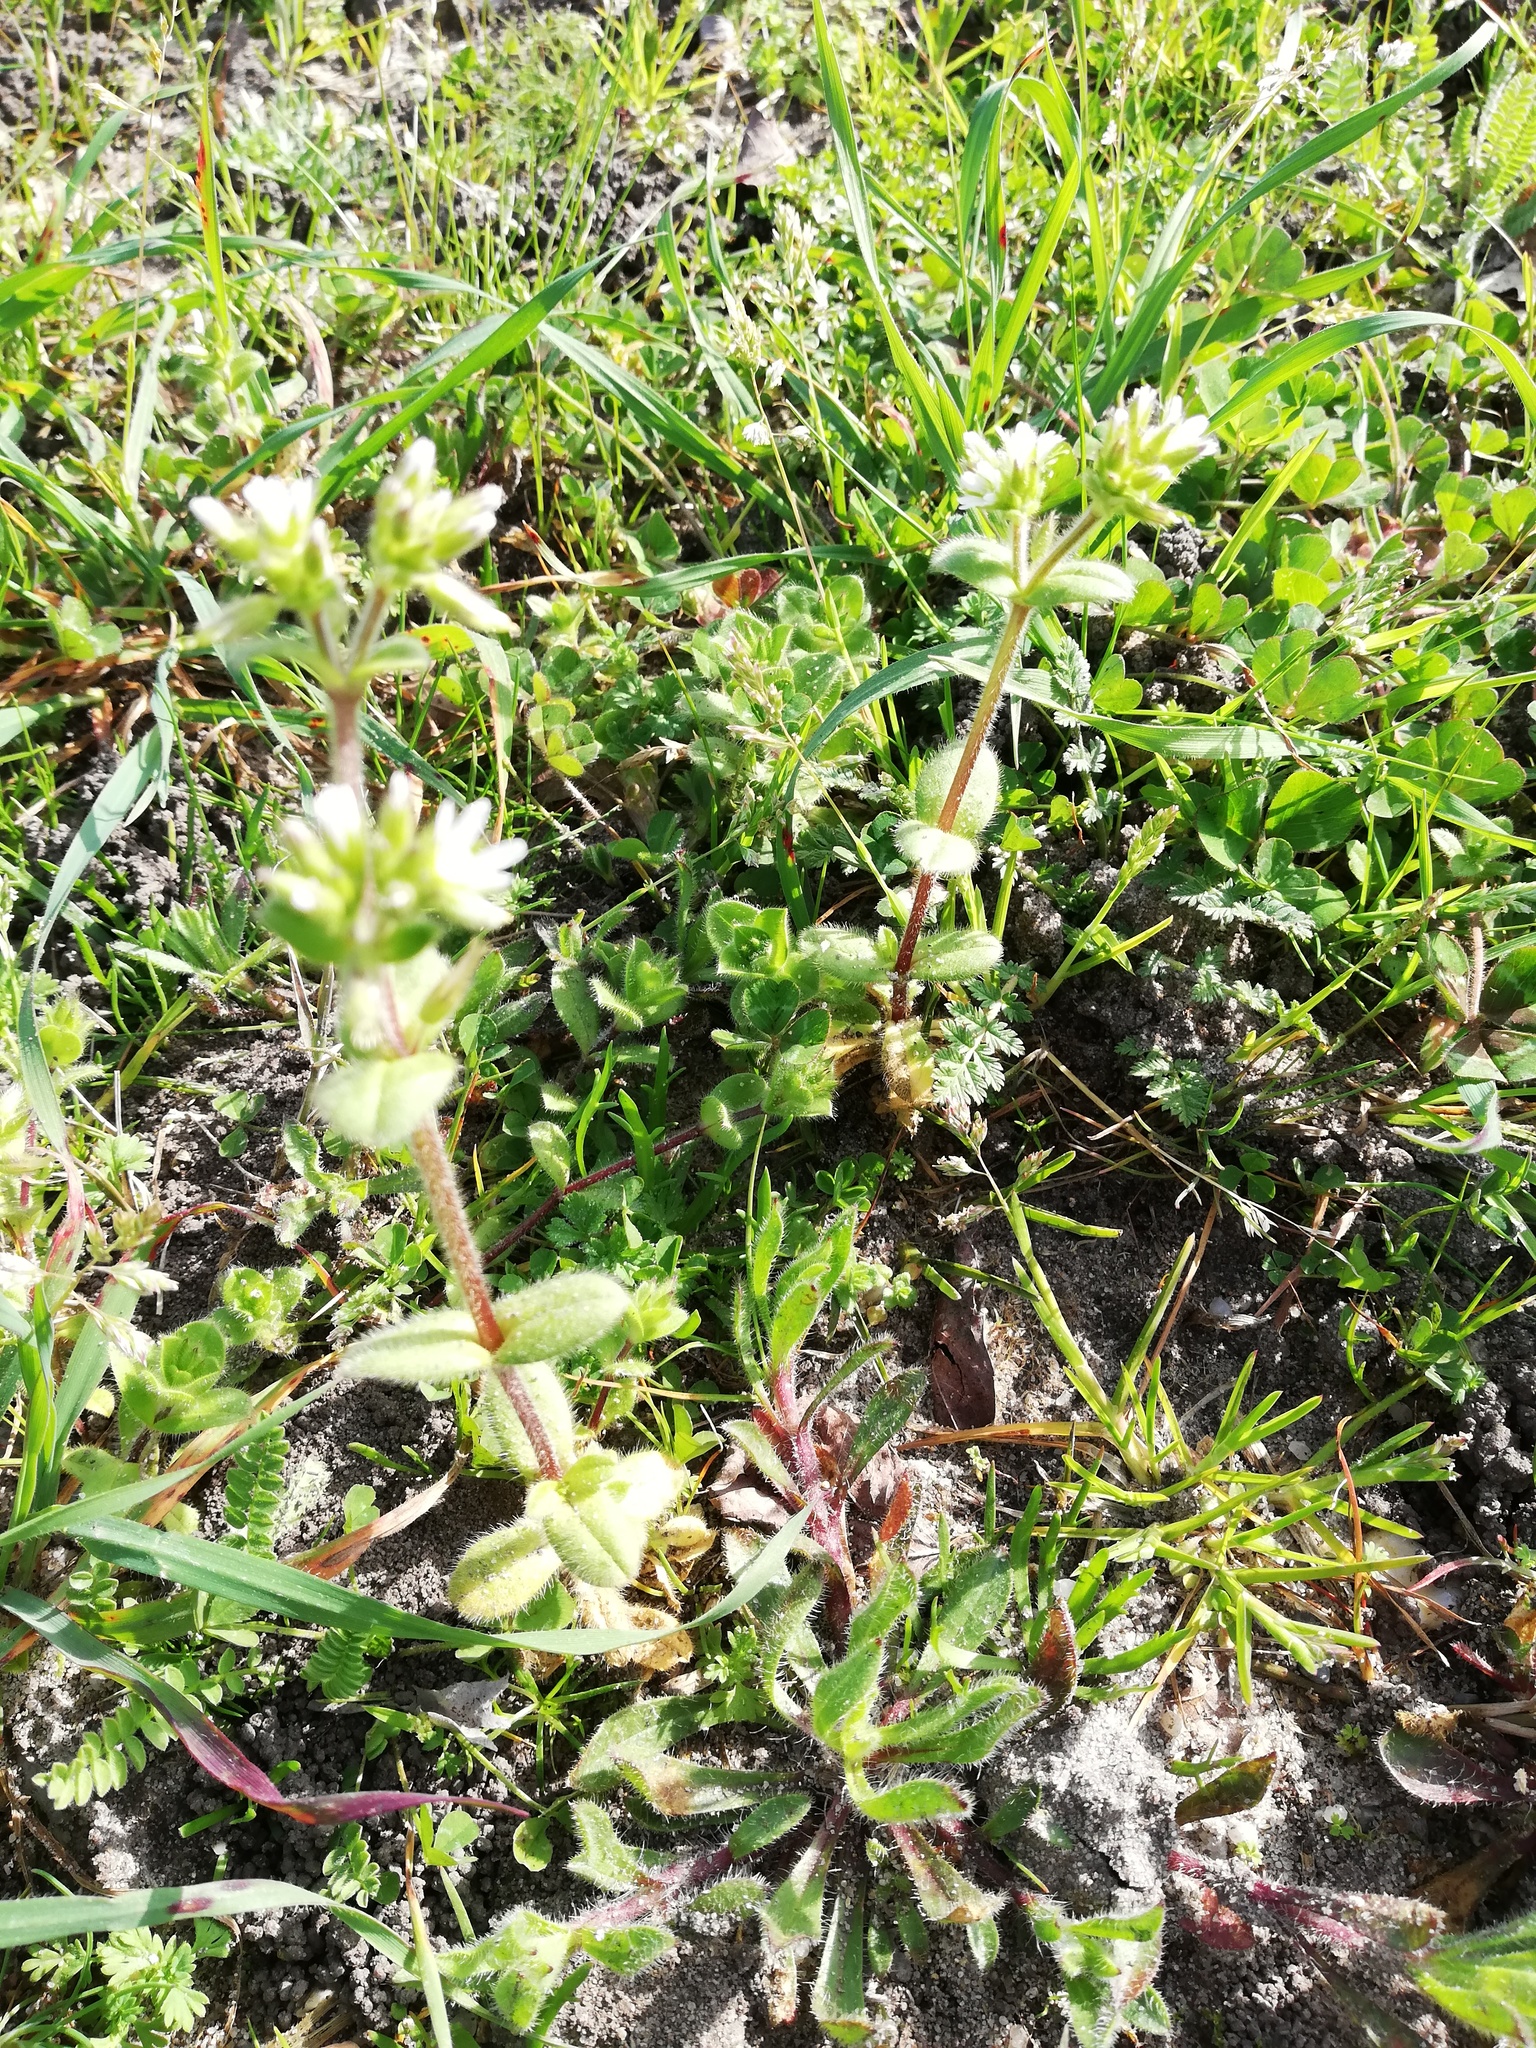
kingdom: Plantae
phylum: Tracheophyta
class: Magnoliopsida
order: Caryophyllales
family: Caryophyllaceae
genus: Cerastium
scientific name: Cerastium glomeratum
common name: Sticky chickweed
